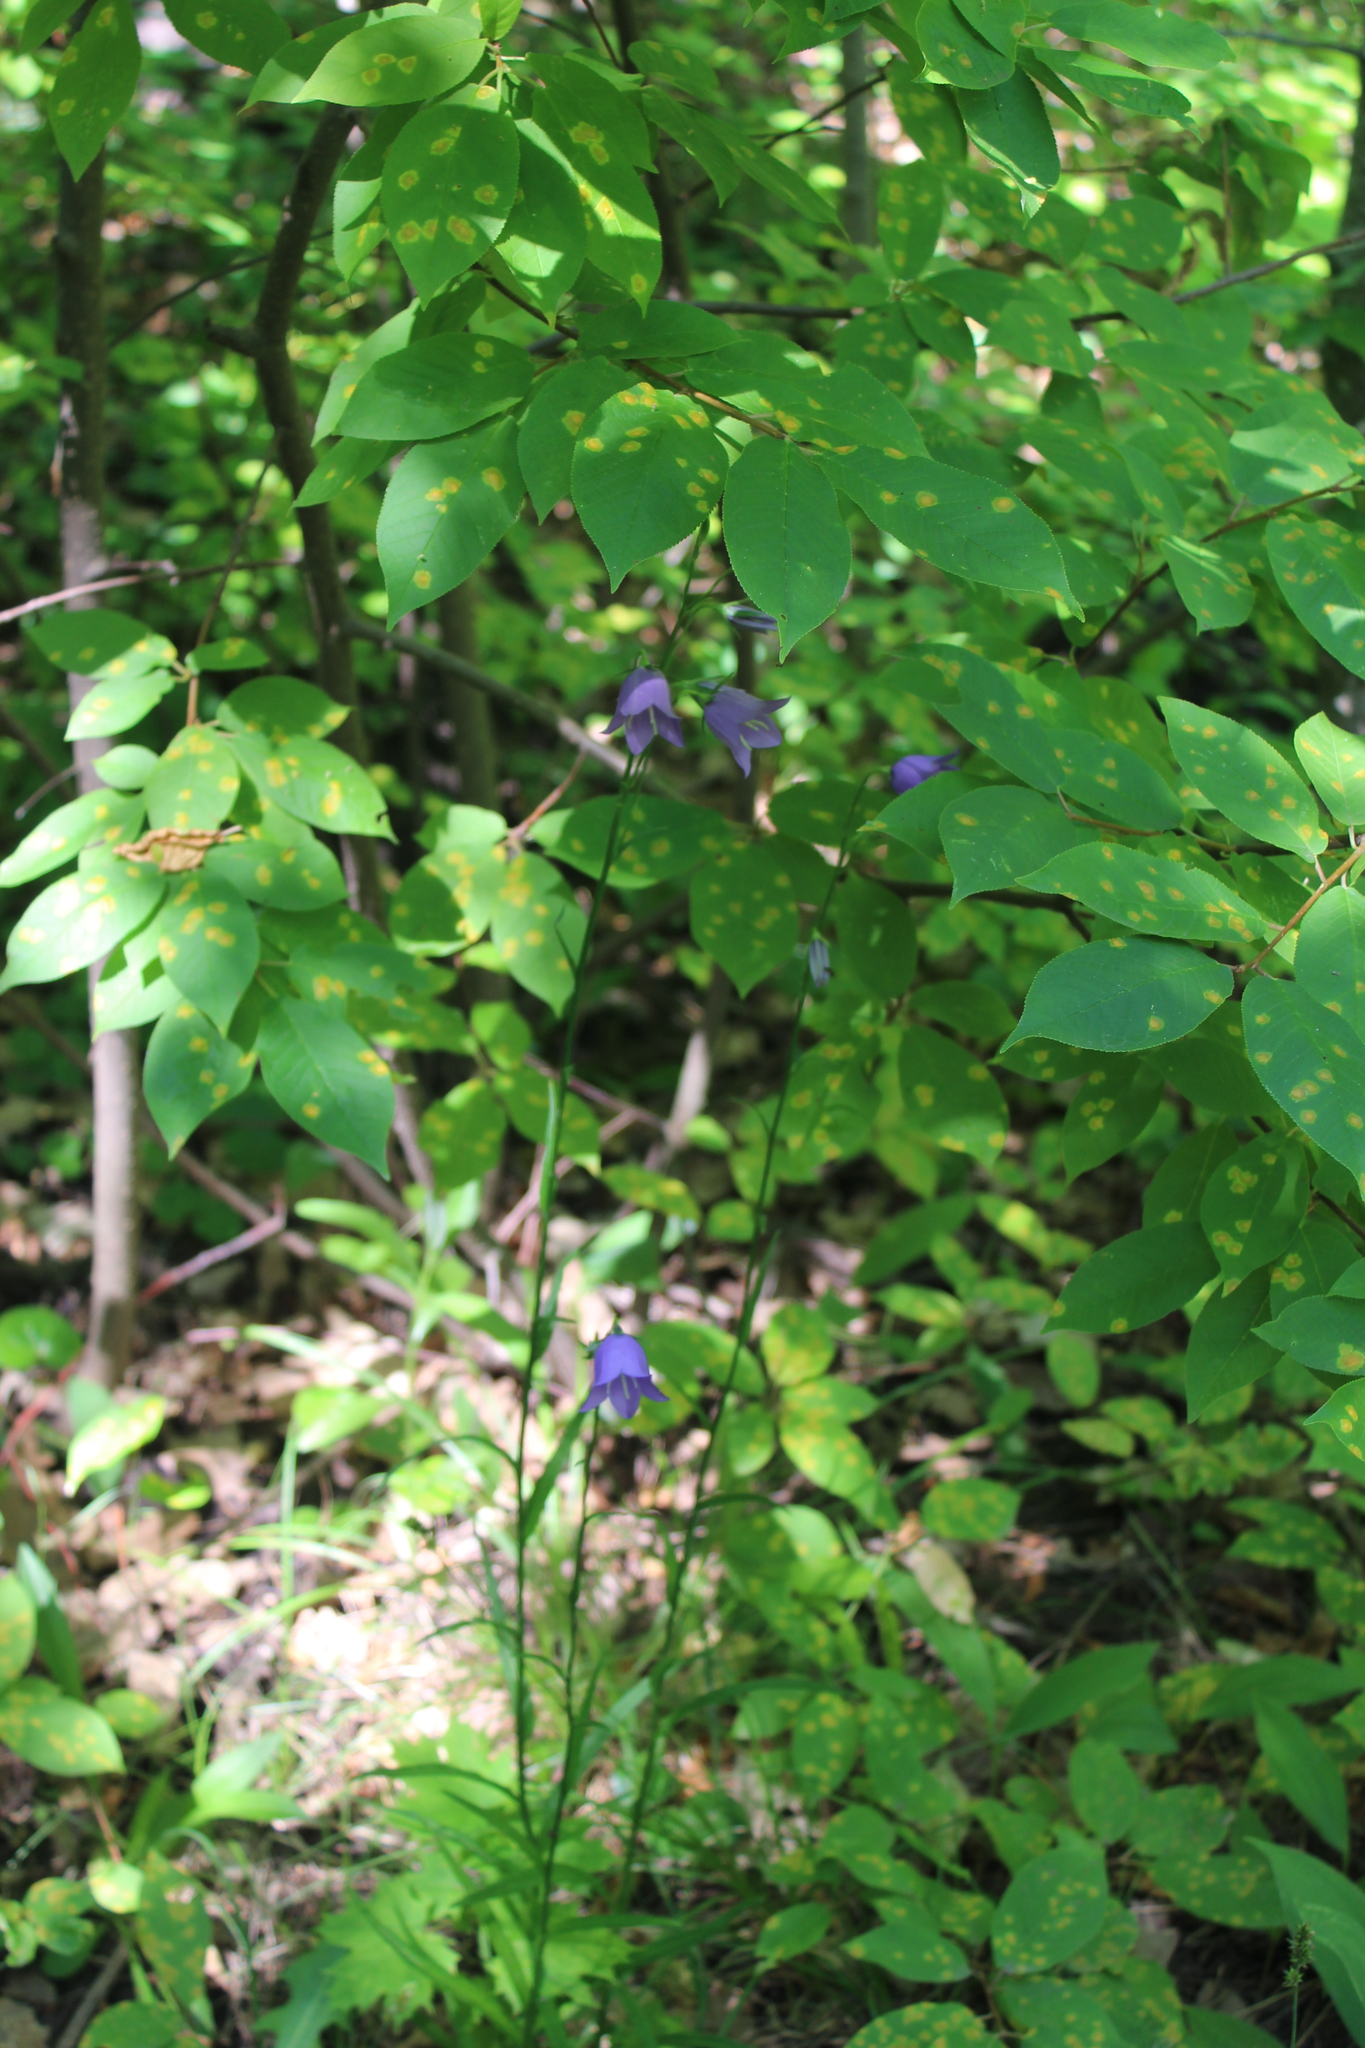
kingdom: Plantae
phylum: Tracheophyta
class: Magnoliopsida
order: Asterales
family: Campanulaceae
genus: Campanula
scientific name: Campanula persicifolia
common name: Peach-leaved bellflower
